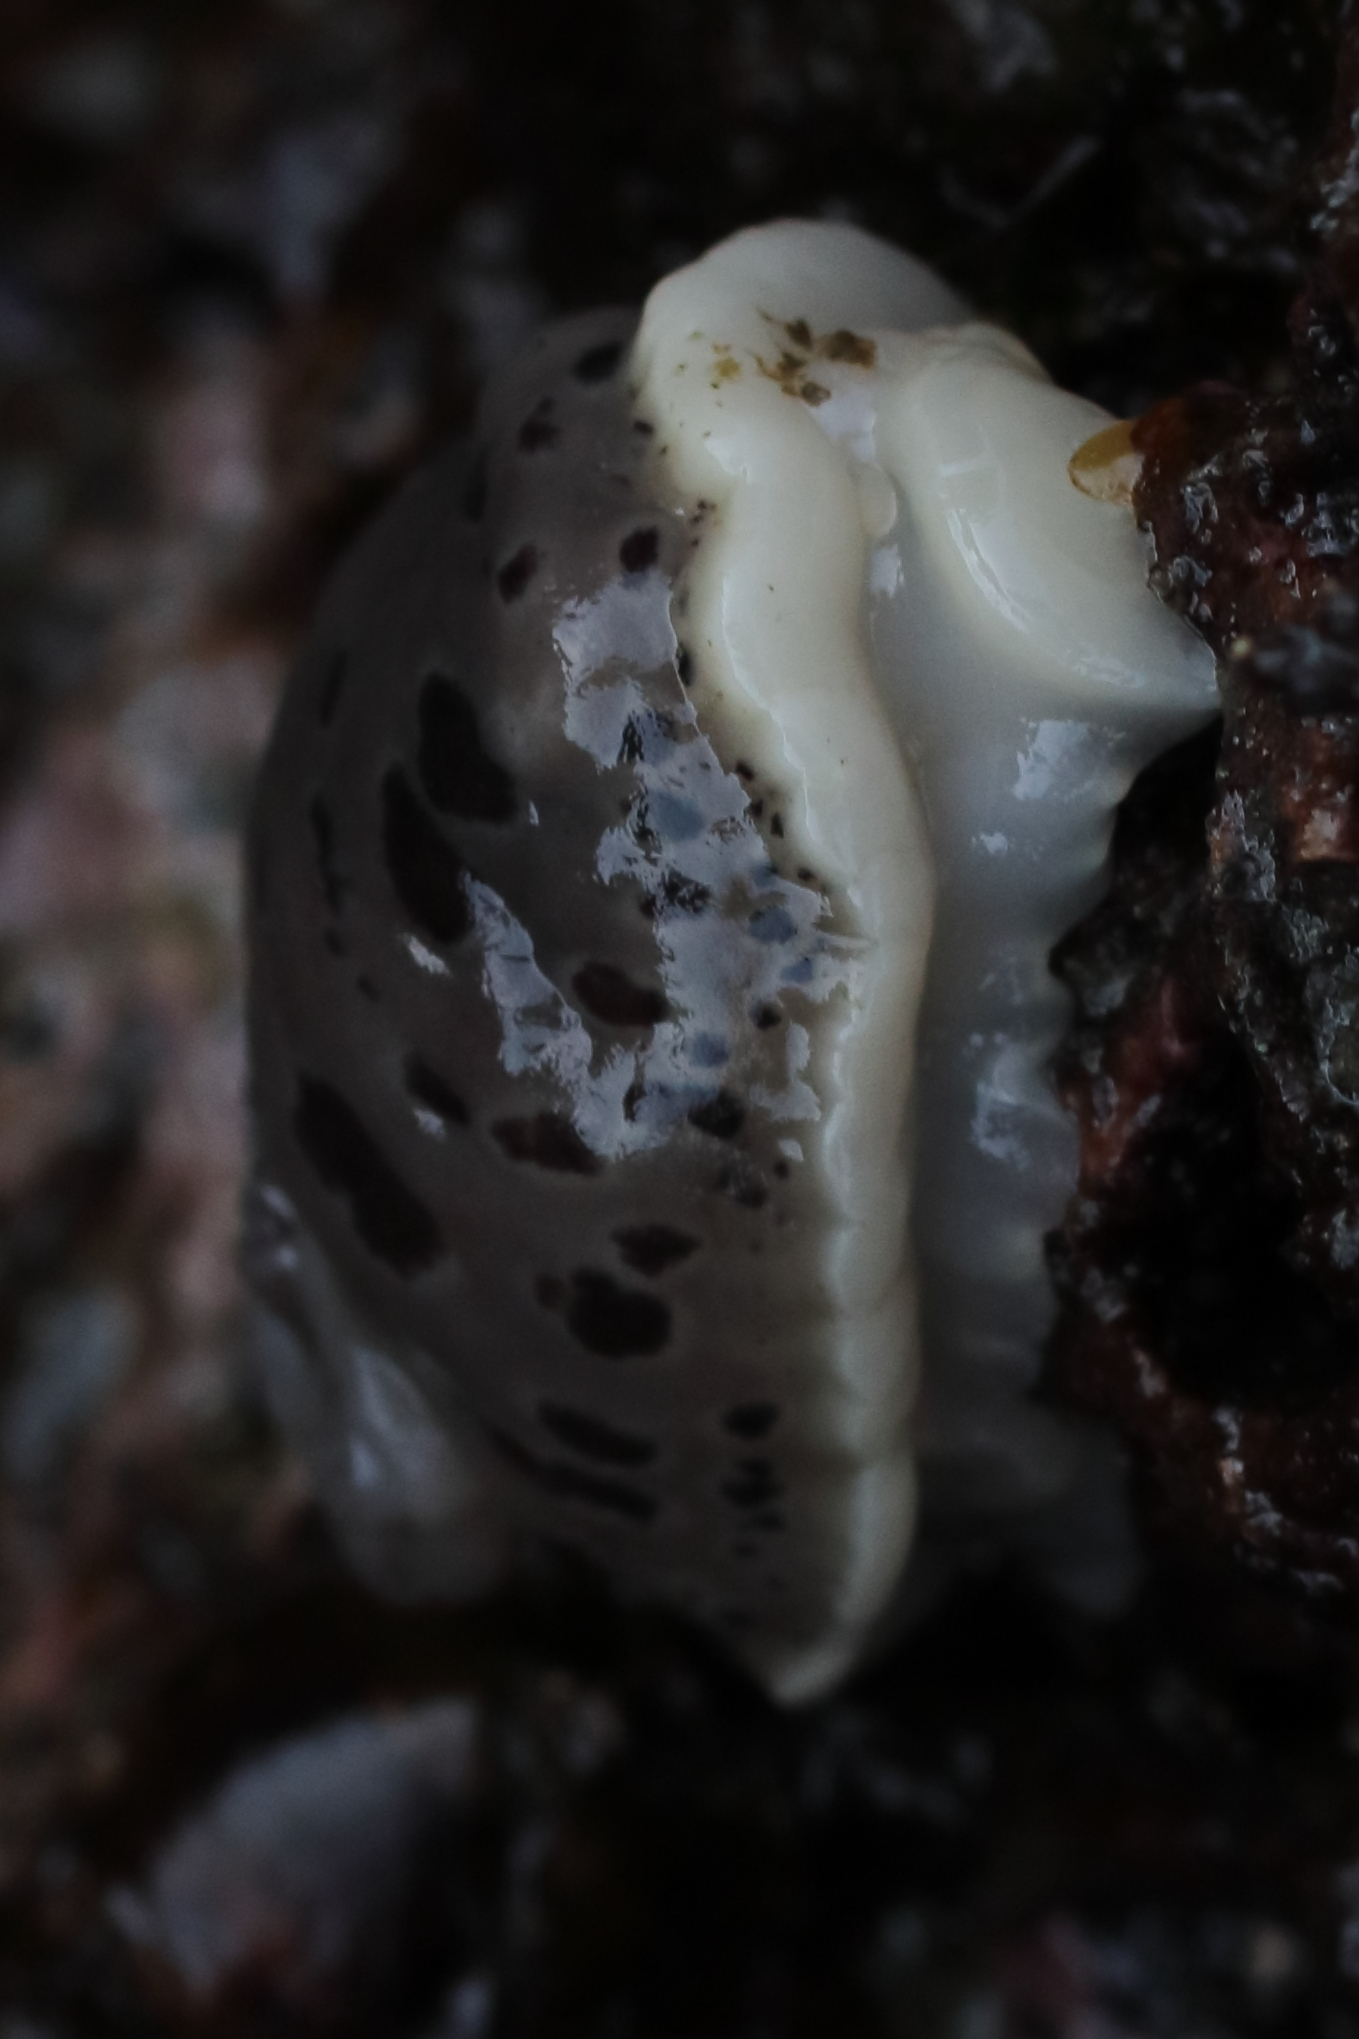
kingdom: Animalia
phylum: Mollusca
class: Gastropoda
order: Nudibranchia
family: Discodorididae
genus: Diaulula
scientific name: Diaulula odonoghuei
